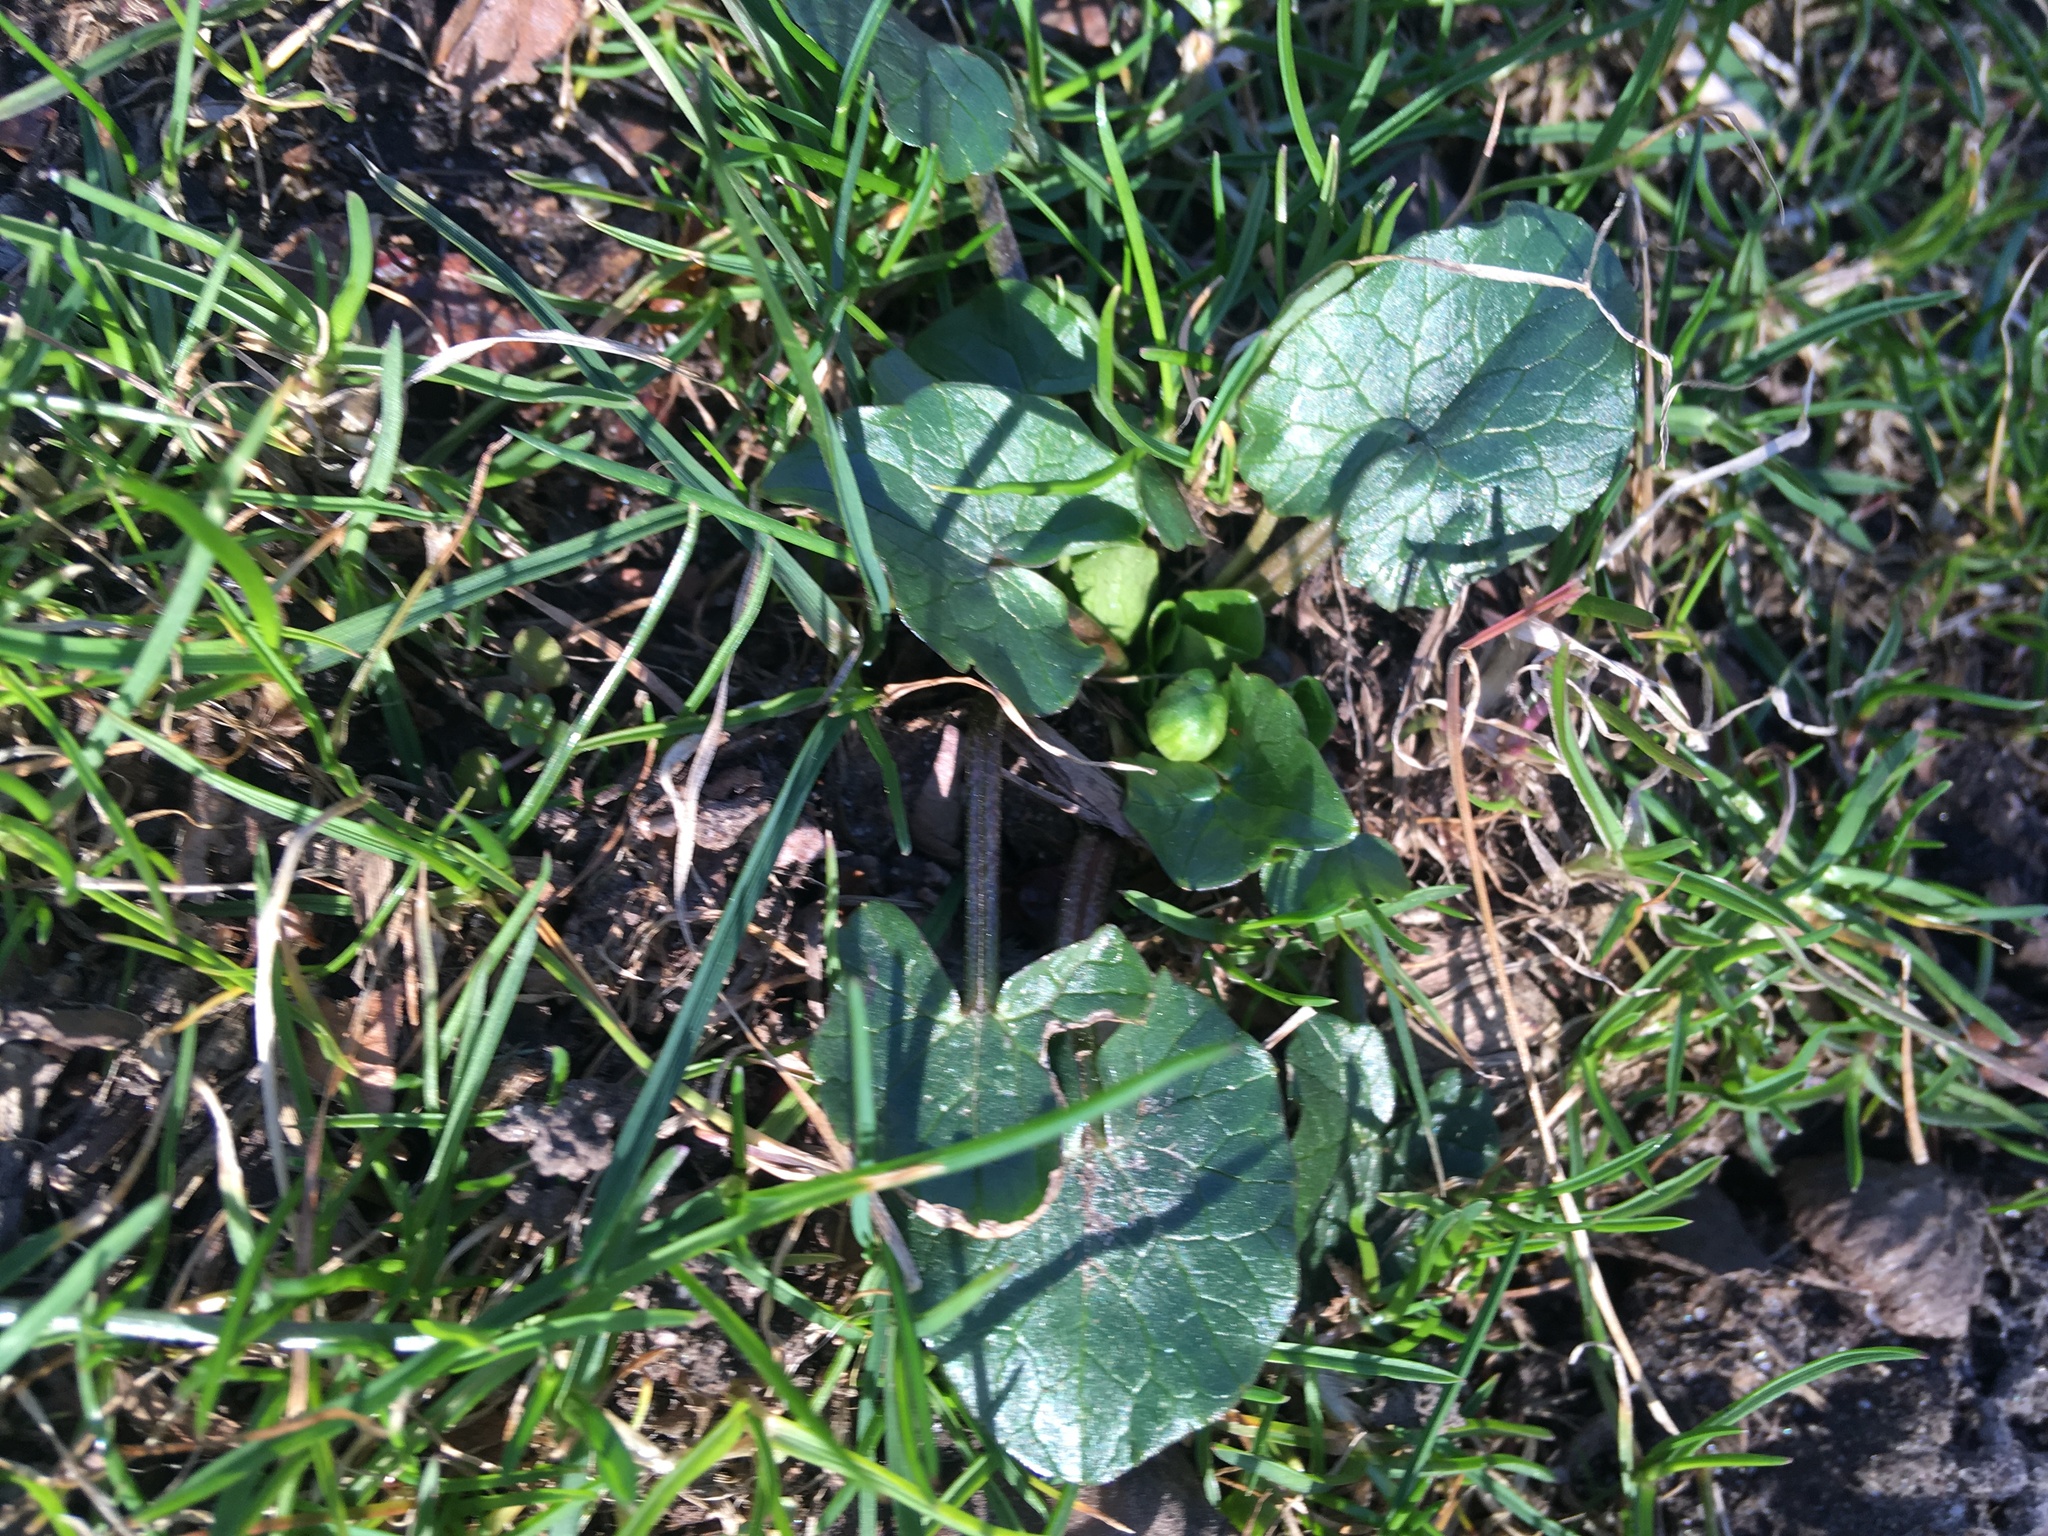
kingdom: Plantae
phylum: Tracheophyta
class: Magnoliopsida
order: Ranunculales
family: Ranunculaceae
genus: Ficaria
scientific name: Ficaria verna
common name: Lesser celandine
